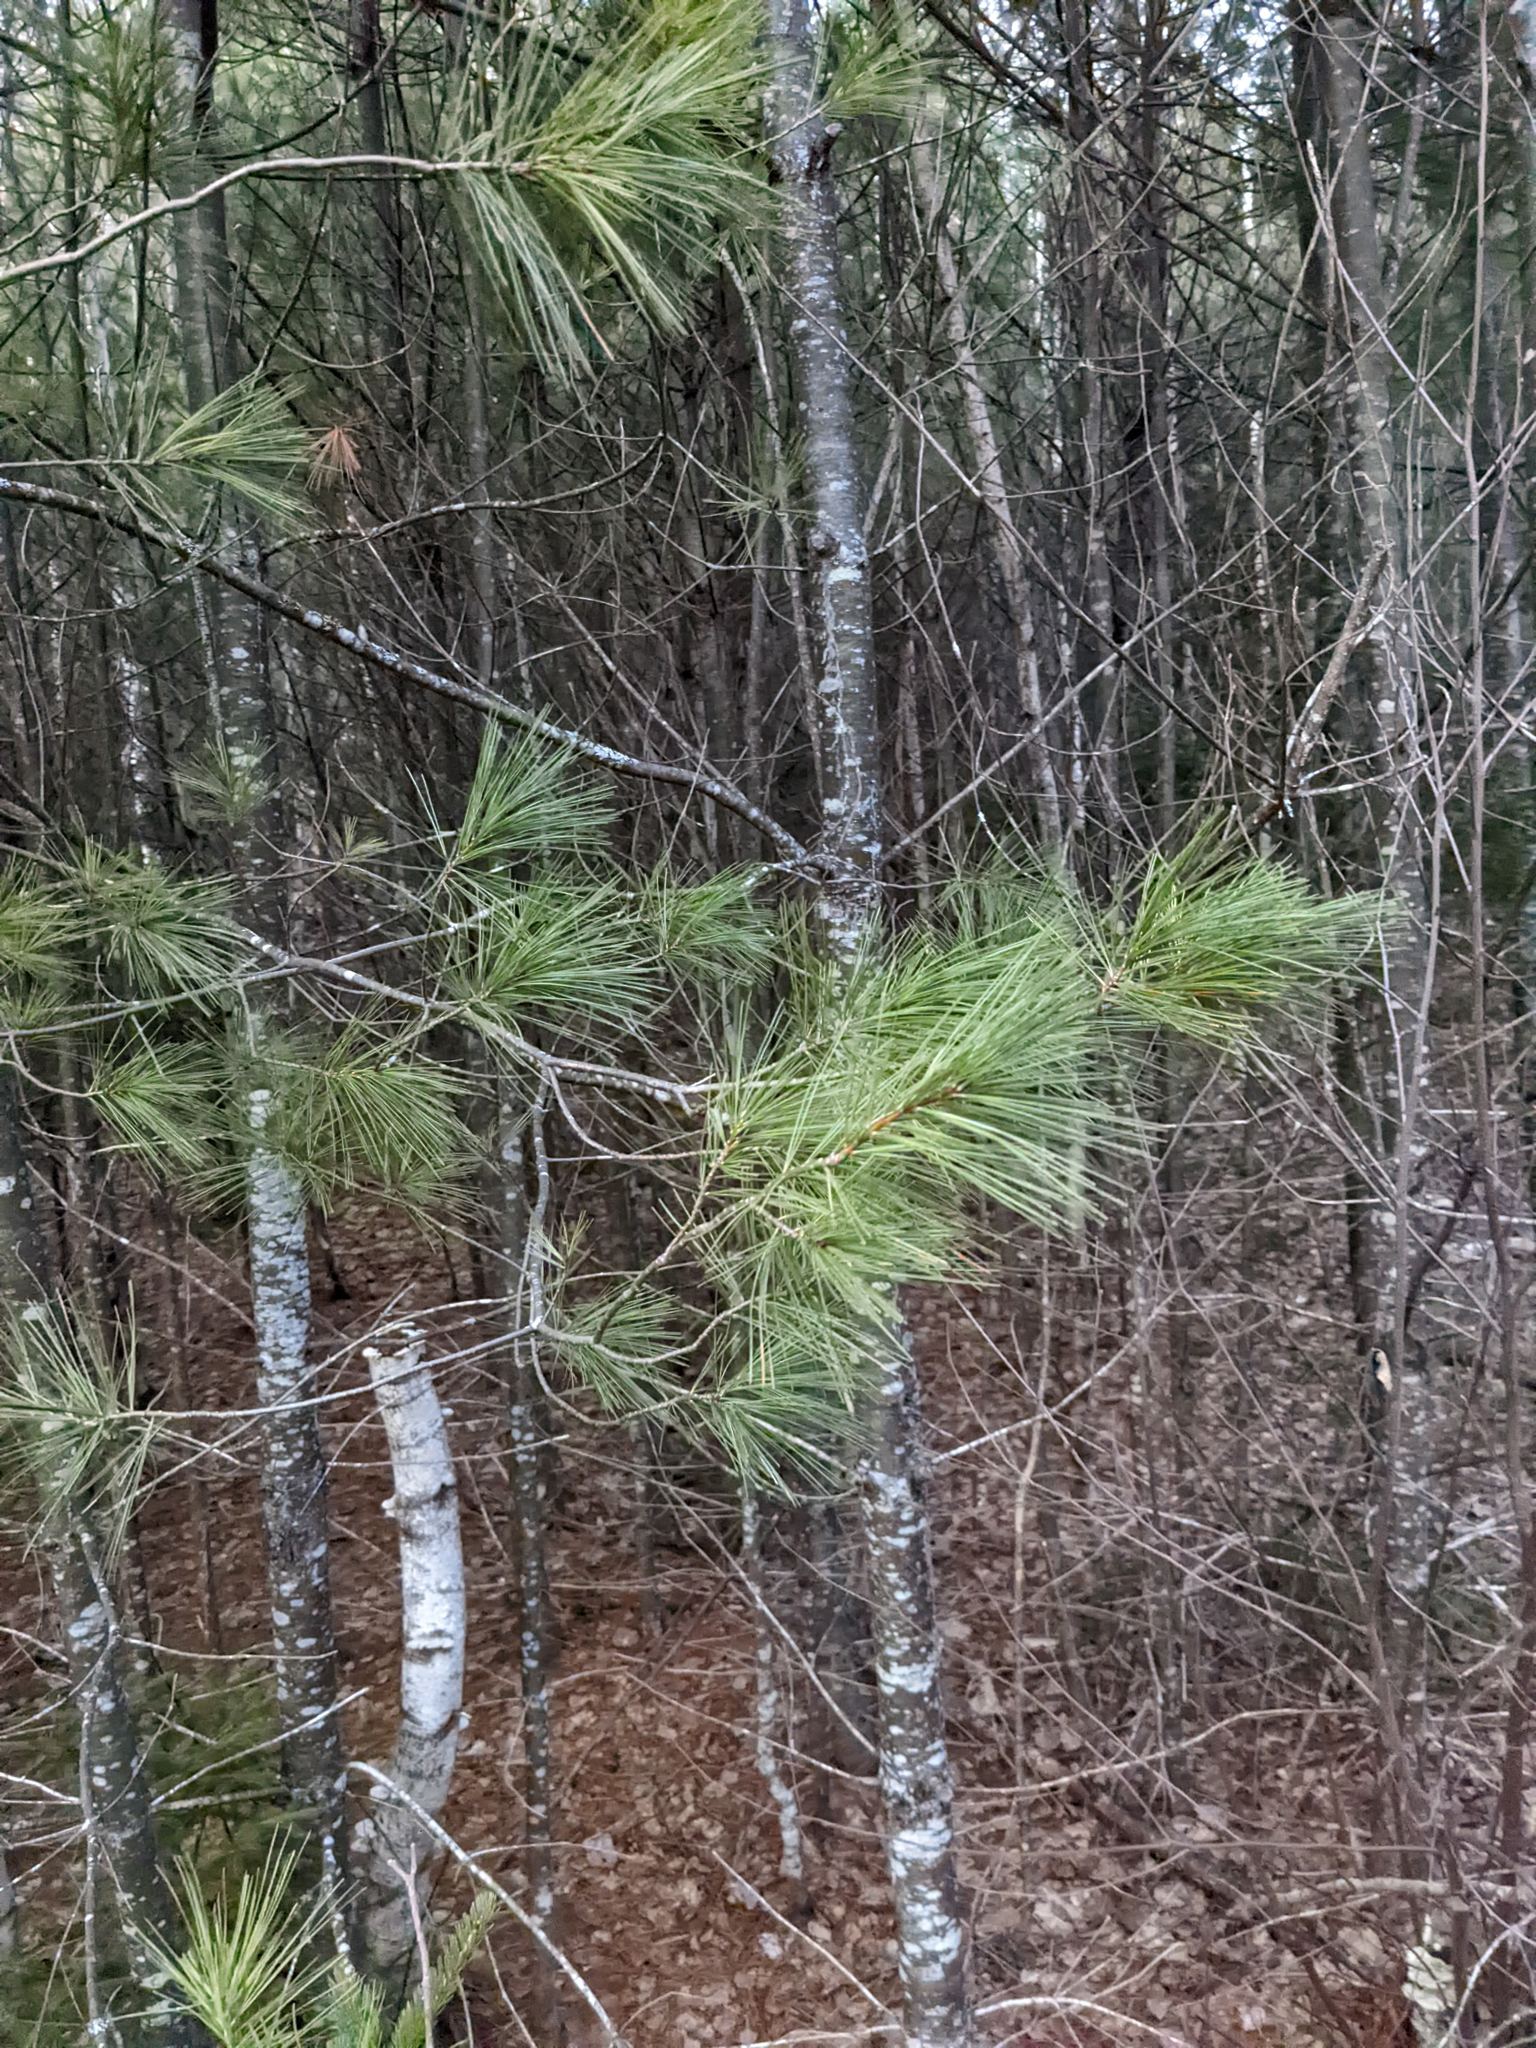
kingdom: Plantae
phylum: Tracheophyta
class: Pinopsida
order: Pinales
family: Pinaceae
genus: Pinus
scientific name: Pinus strobus
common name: Weymouth pine
